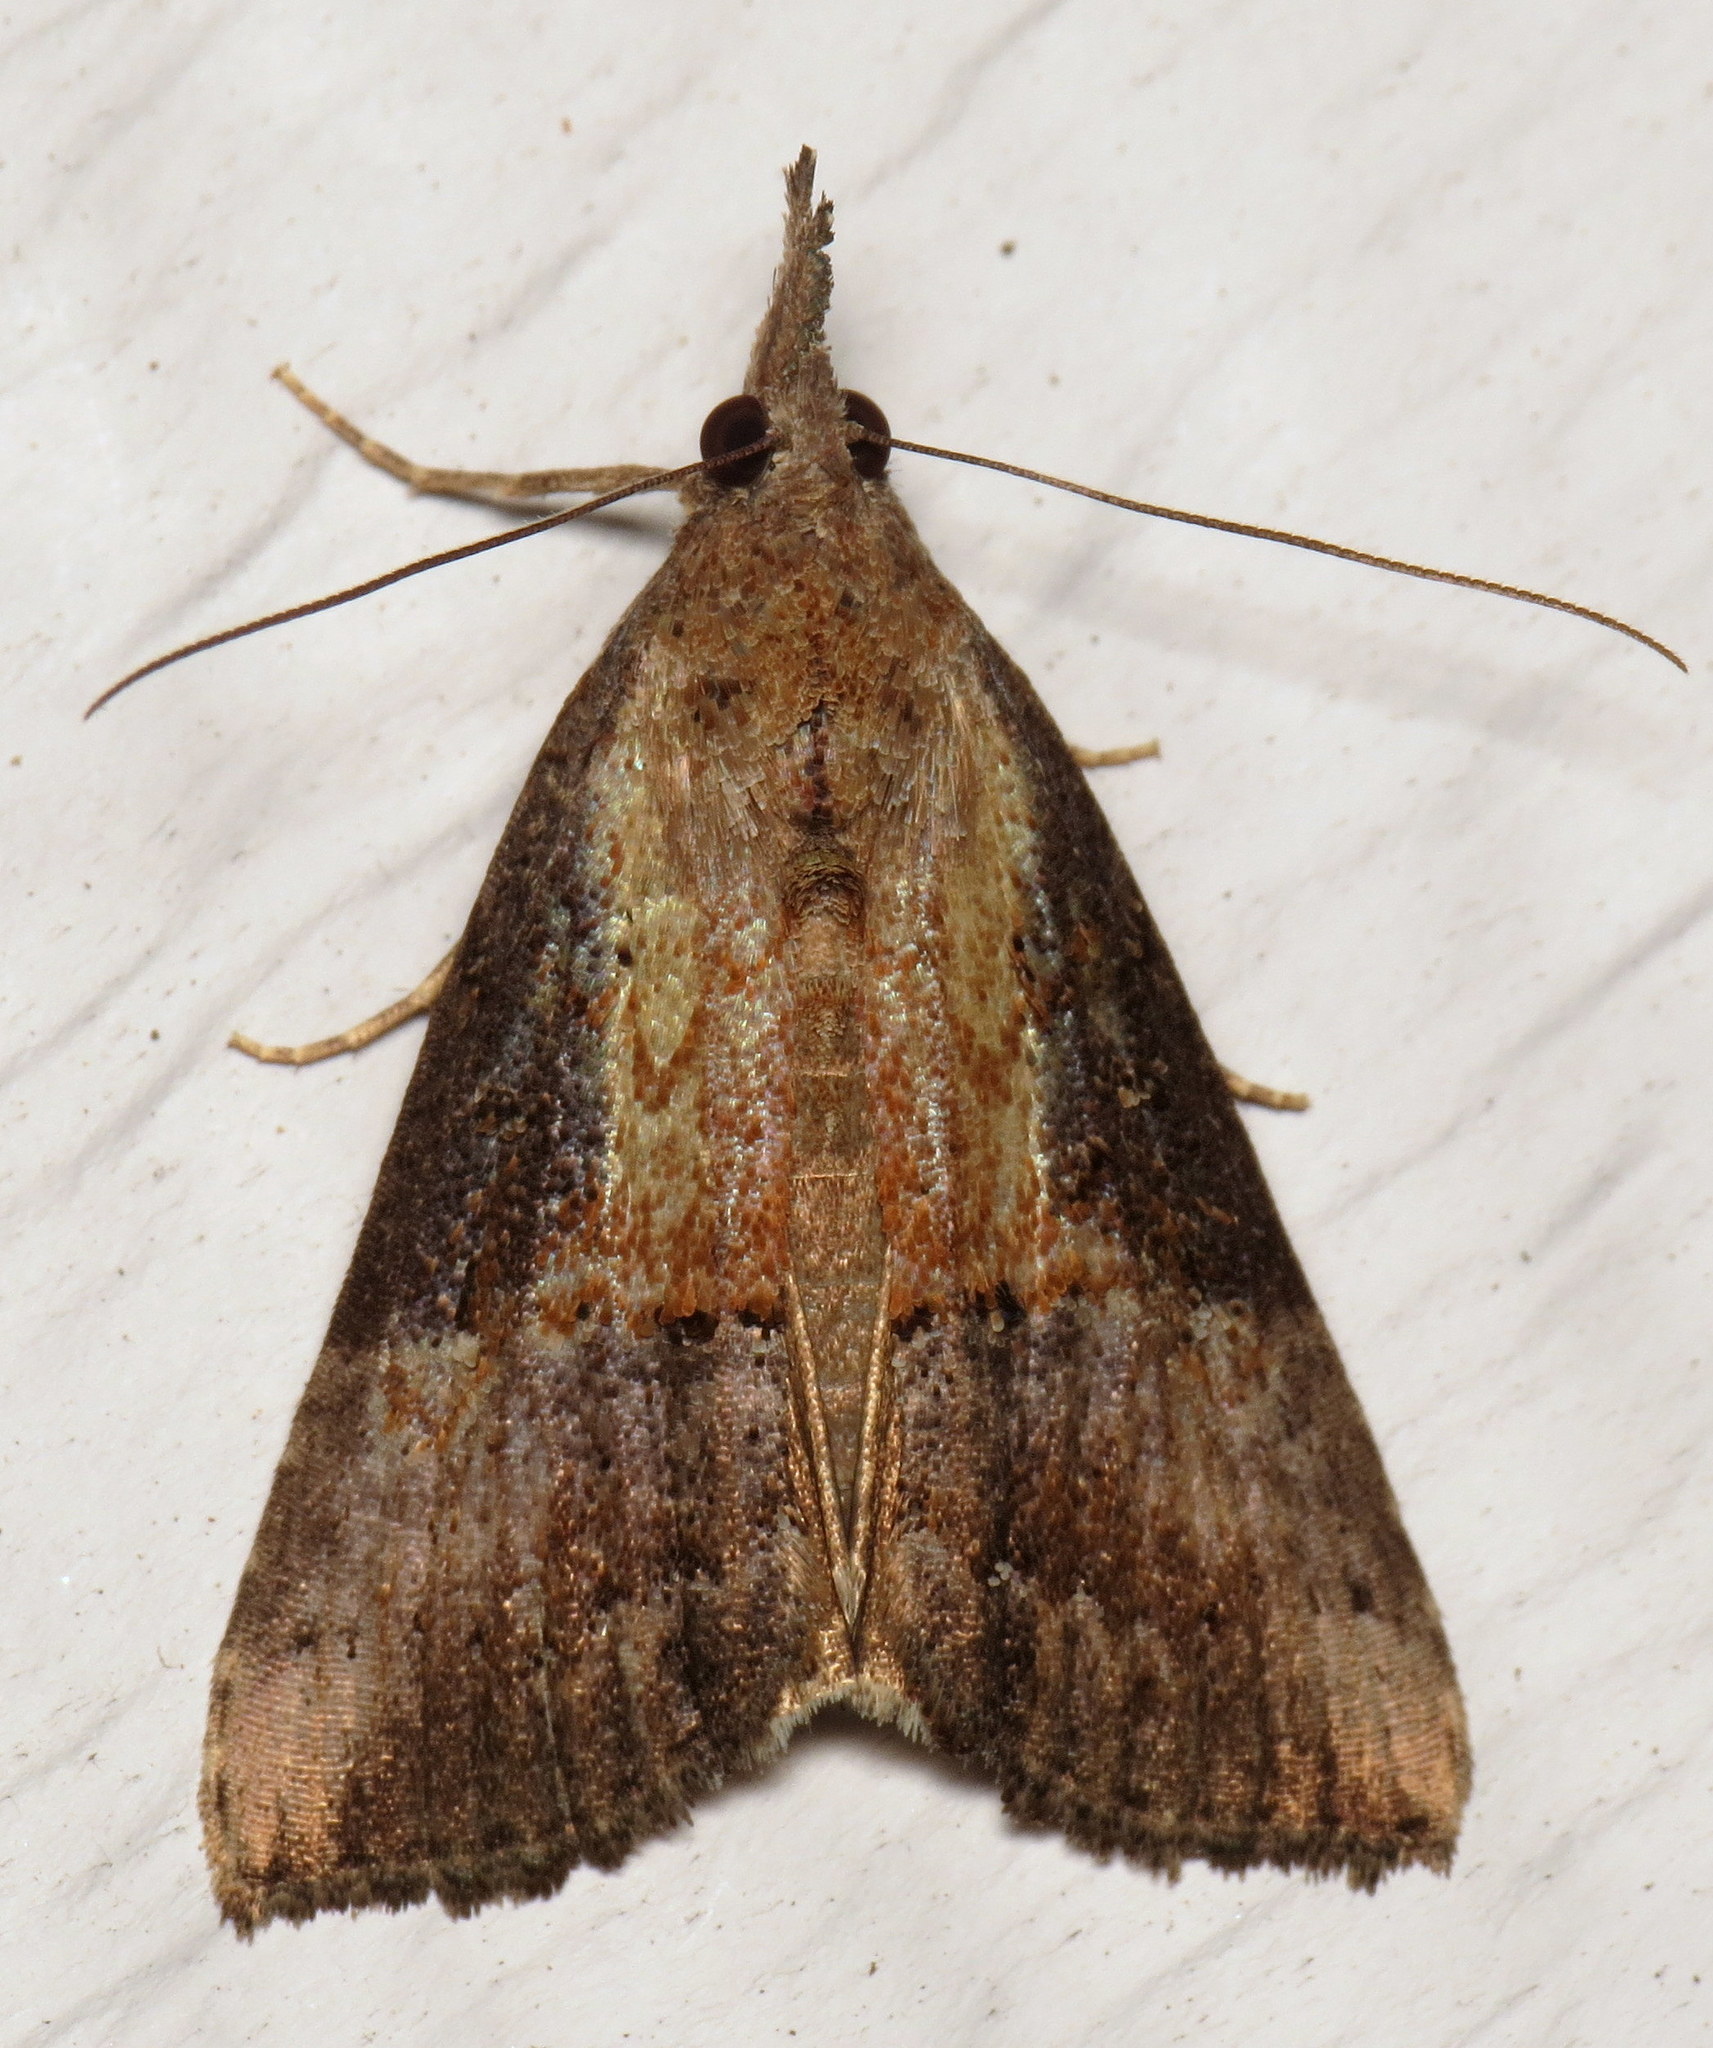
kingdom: Animalia
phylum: Arthropoda
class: Insecta
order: Lepidoptera
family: Erebidae
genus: Hypena
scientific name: Hypena scabra
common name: Green cloverworm
